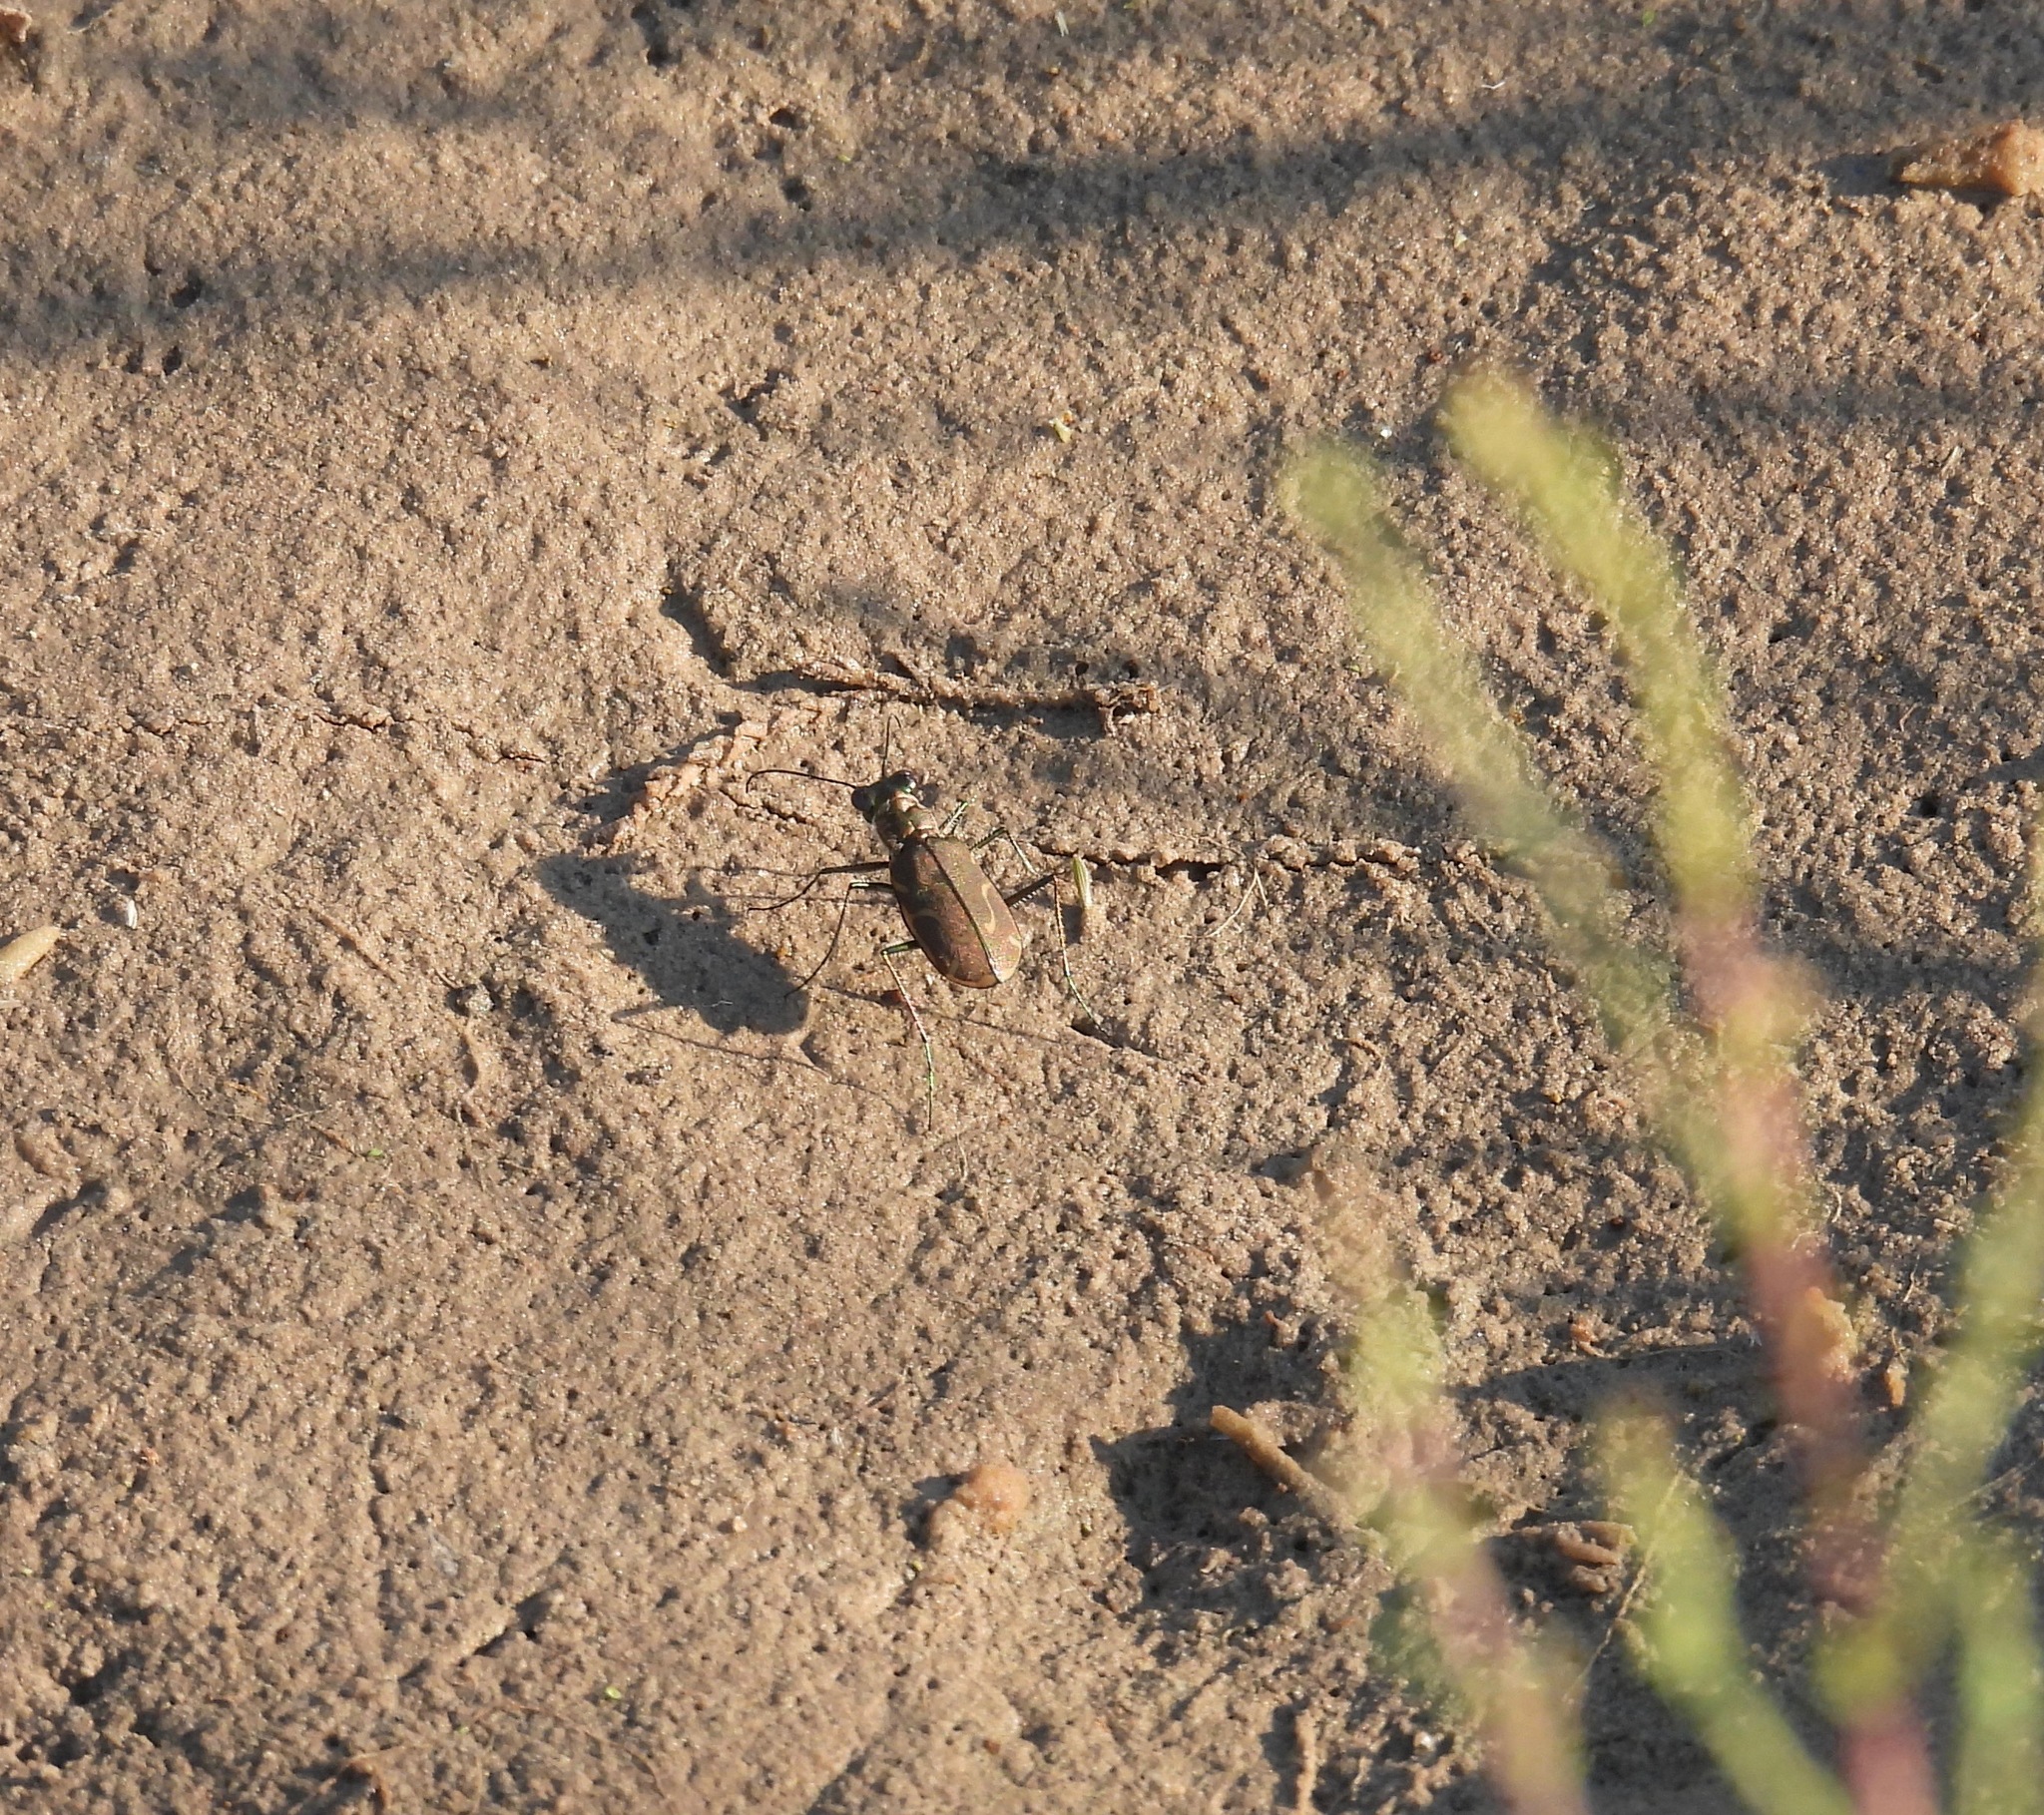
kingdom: Animalia
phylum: Arthropoda
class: Insecta
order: Coleoptera
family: Carabidae
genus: Cicindela
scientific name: Cicindela tenuisignata
